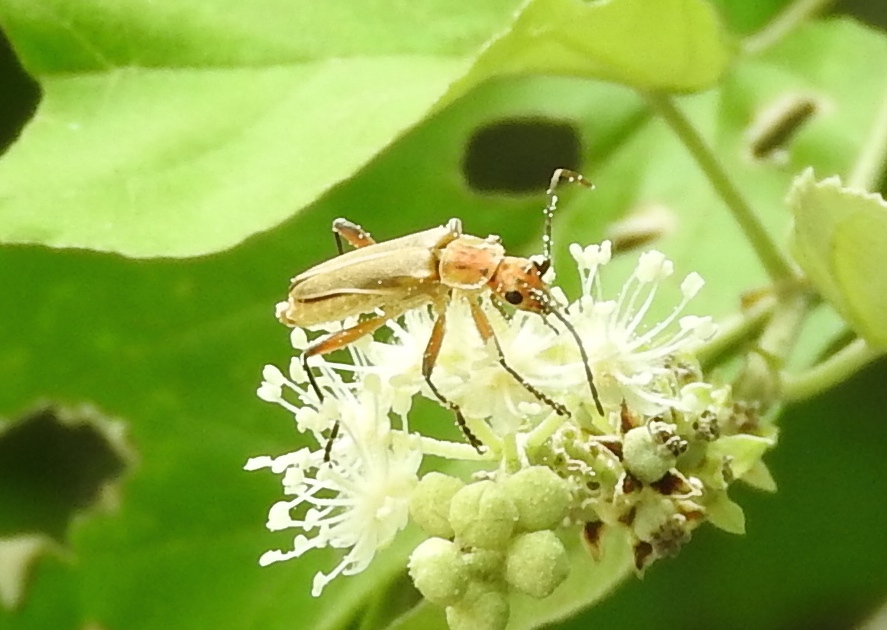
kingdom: Animalia
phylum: Arthropoda
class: Insecta
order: Coleoptera
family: Cantharidae
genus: Chauliognathus
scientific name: Chauliognathus
